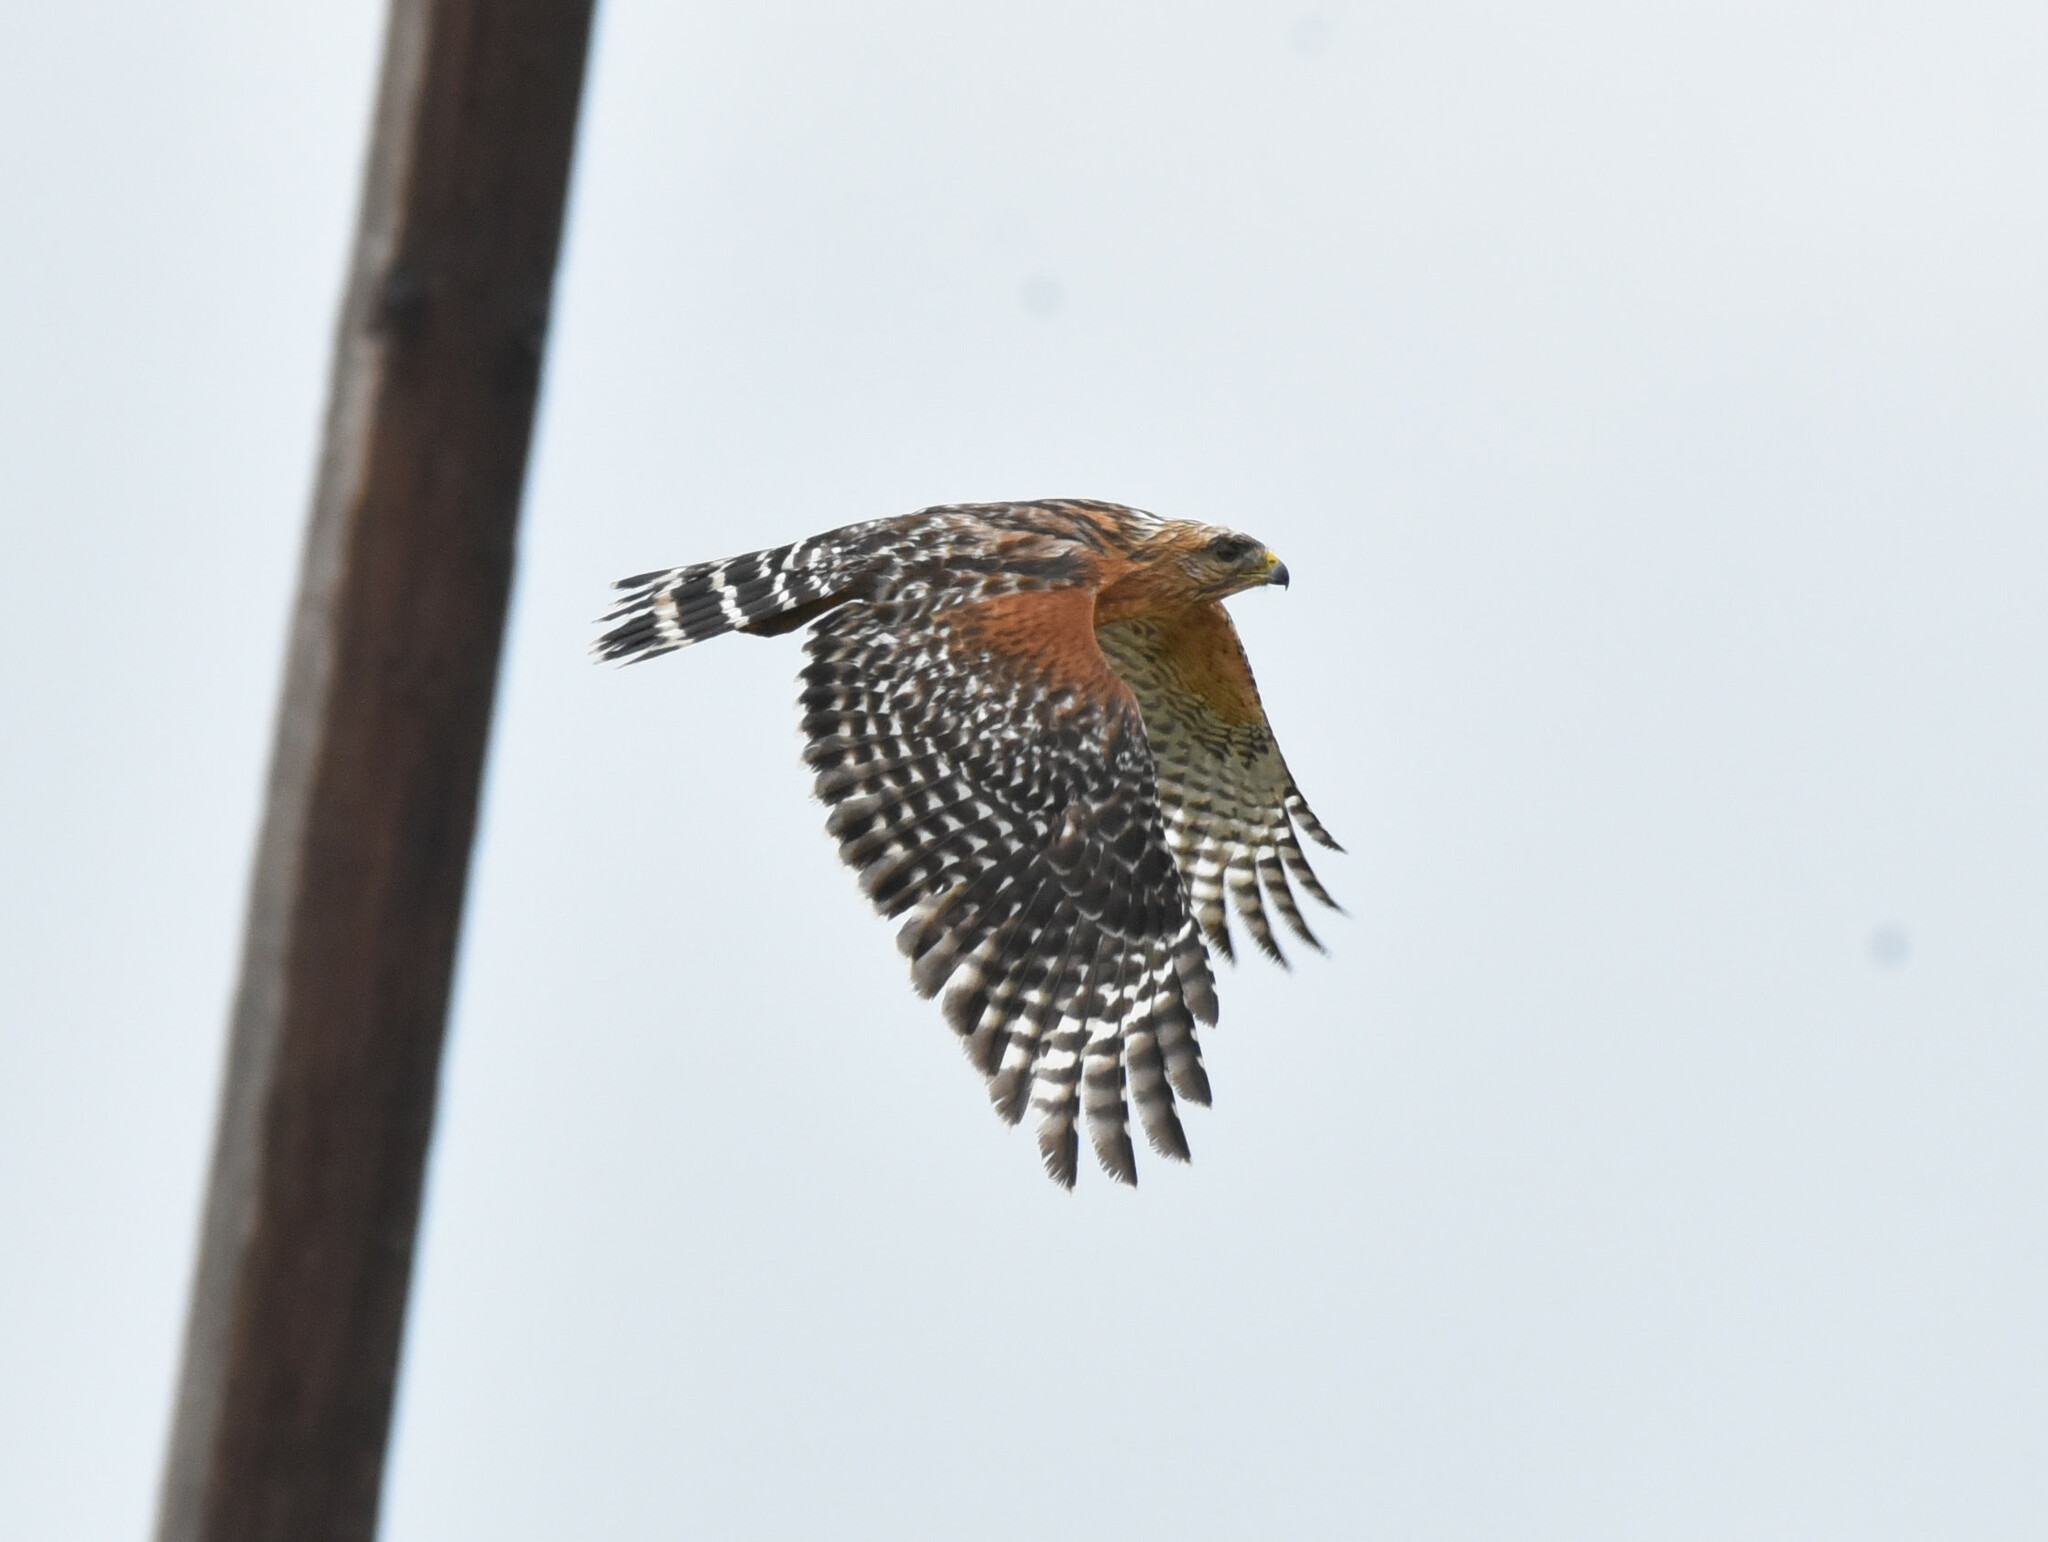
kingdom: Animalia
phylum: Chordata
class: Aves
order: Accipitriformes
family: Accipitridae
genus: Buteo
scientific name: Buteo lineatus
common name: Red-shouldered hawk
